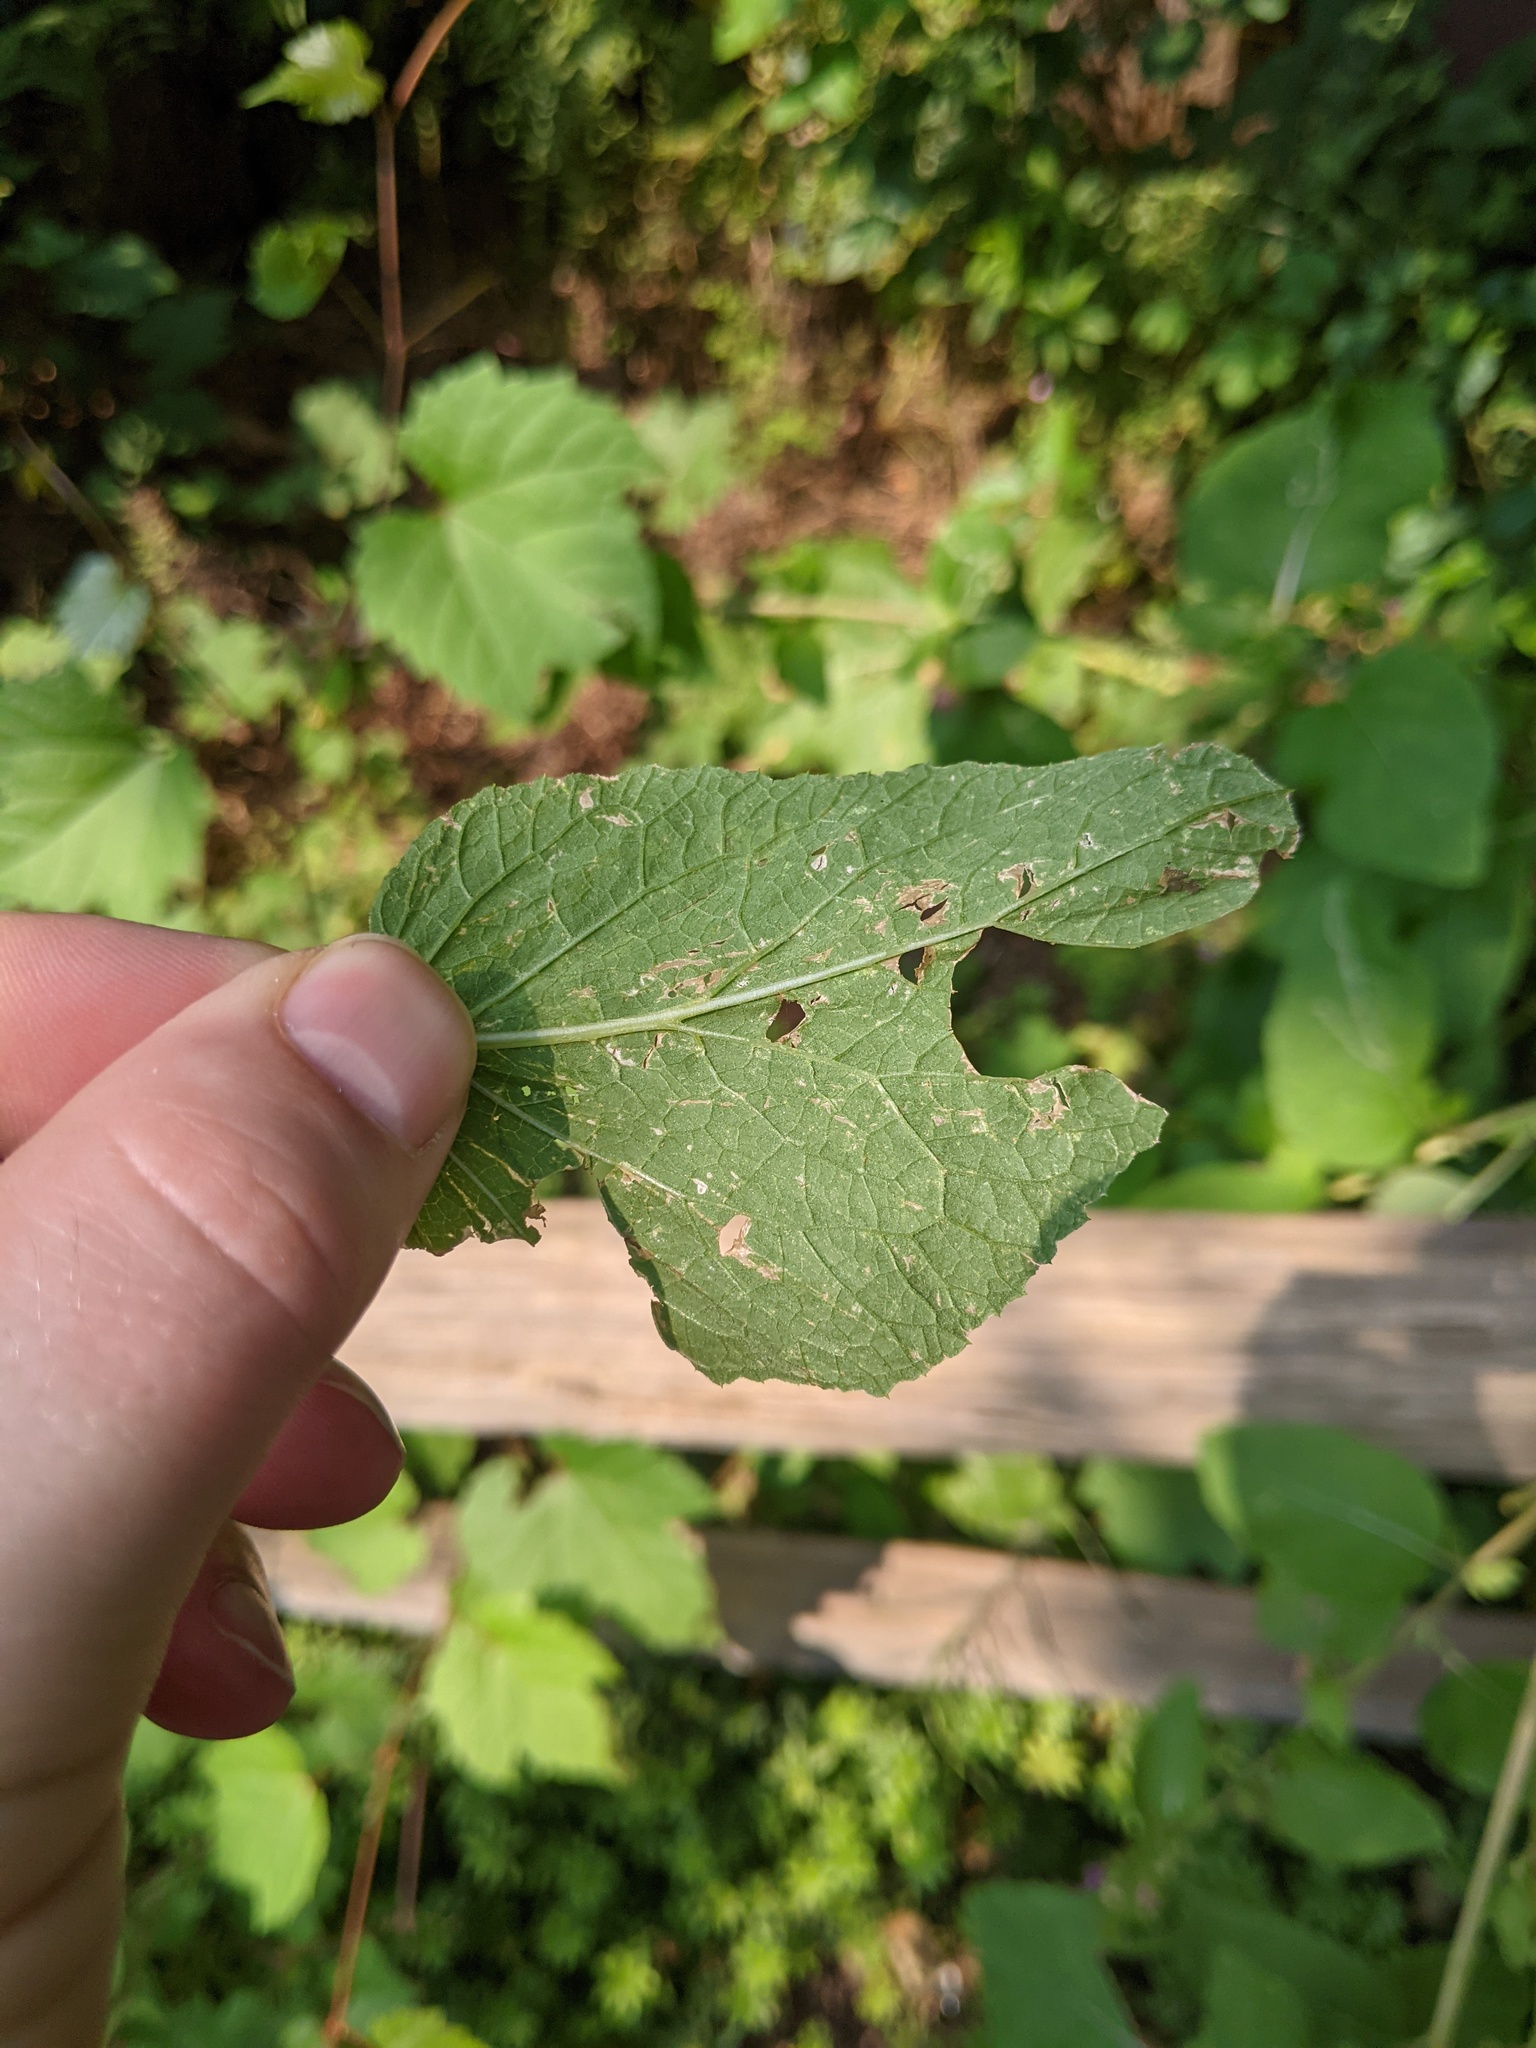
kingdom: Animalia
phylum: Arthropoda
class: Insecta
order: Diptera
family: Agromyzidae
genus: Liriomyza
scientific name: Liriomyza arctii
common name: Burdock leafminer
